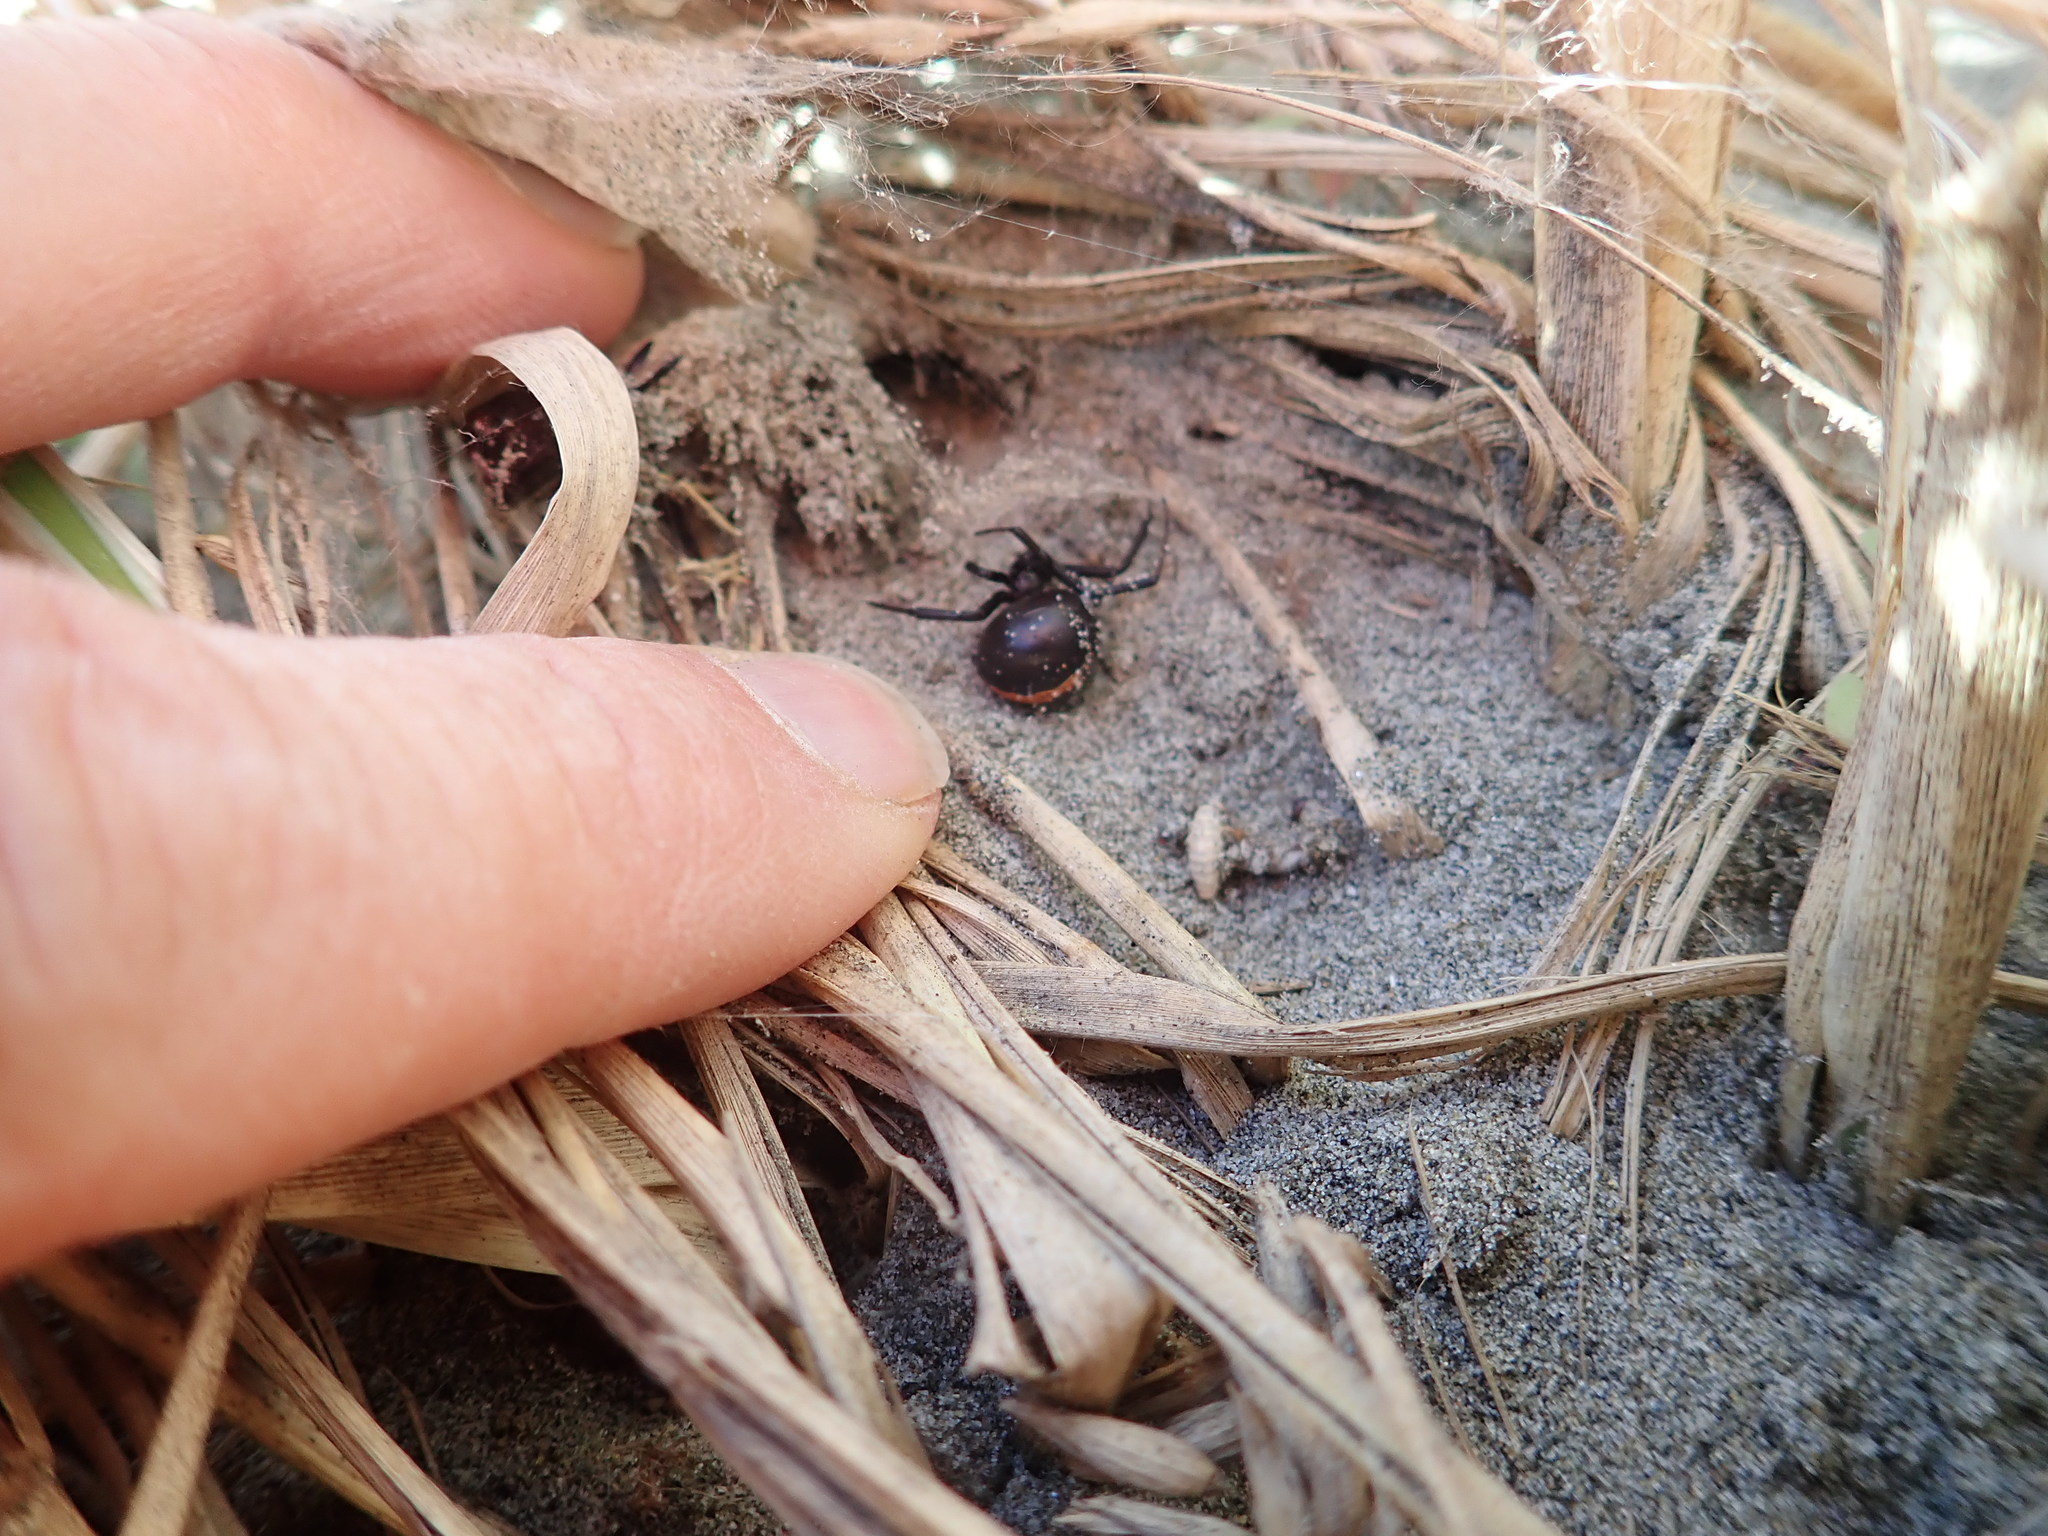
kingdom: Animalia
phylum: Arthropoda
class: Arachnida
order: Araneae
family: Theridiidae
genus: Latrodectus
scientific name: Latrodectus katipo
